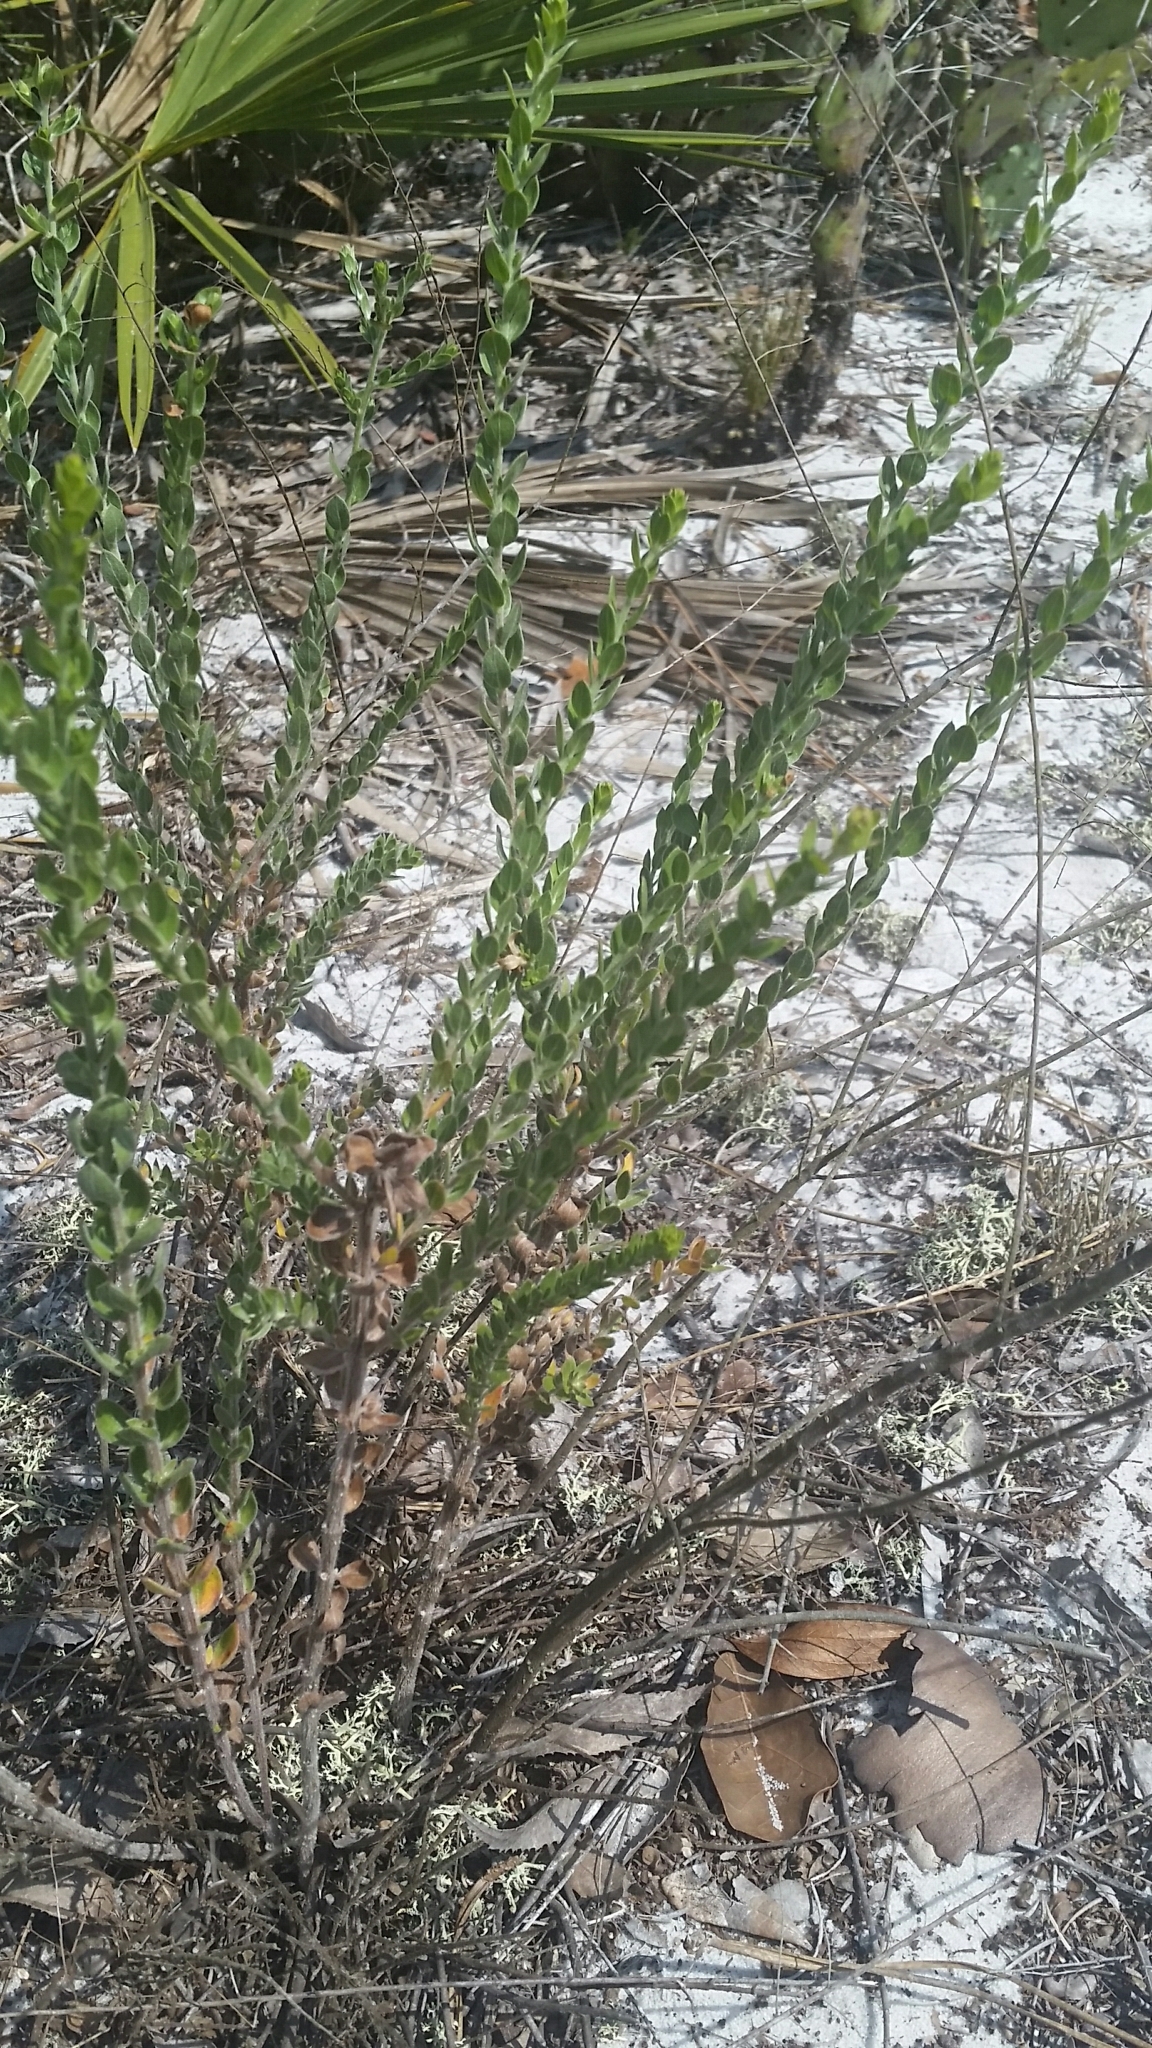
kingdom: Plantae
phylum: Tracheophyta
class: Magnoliopsida
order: Malvales
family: Cistaceae
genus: Lechea
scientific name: Lechea cernua
